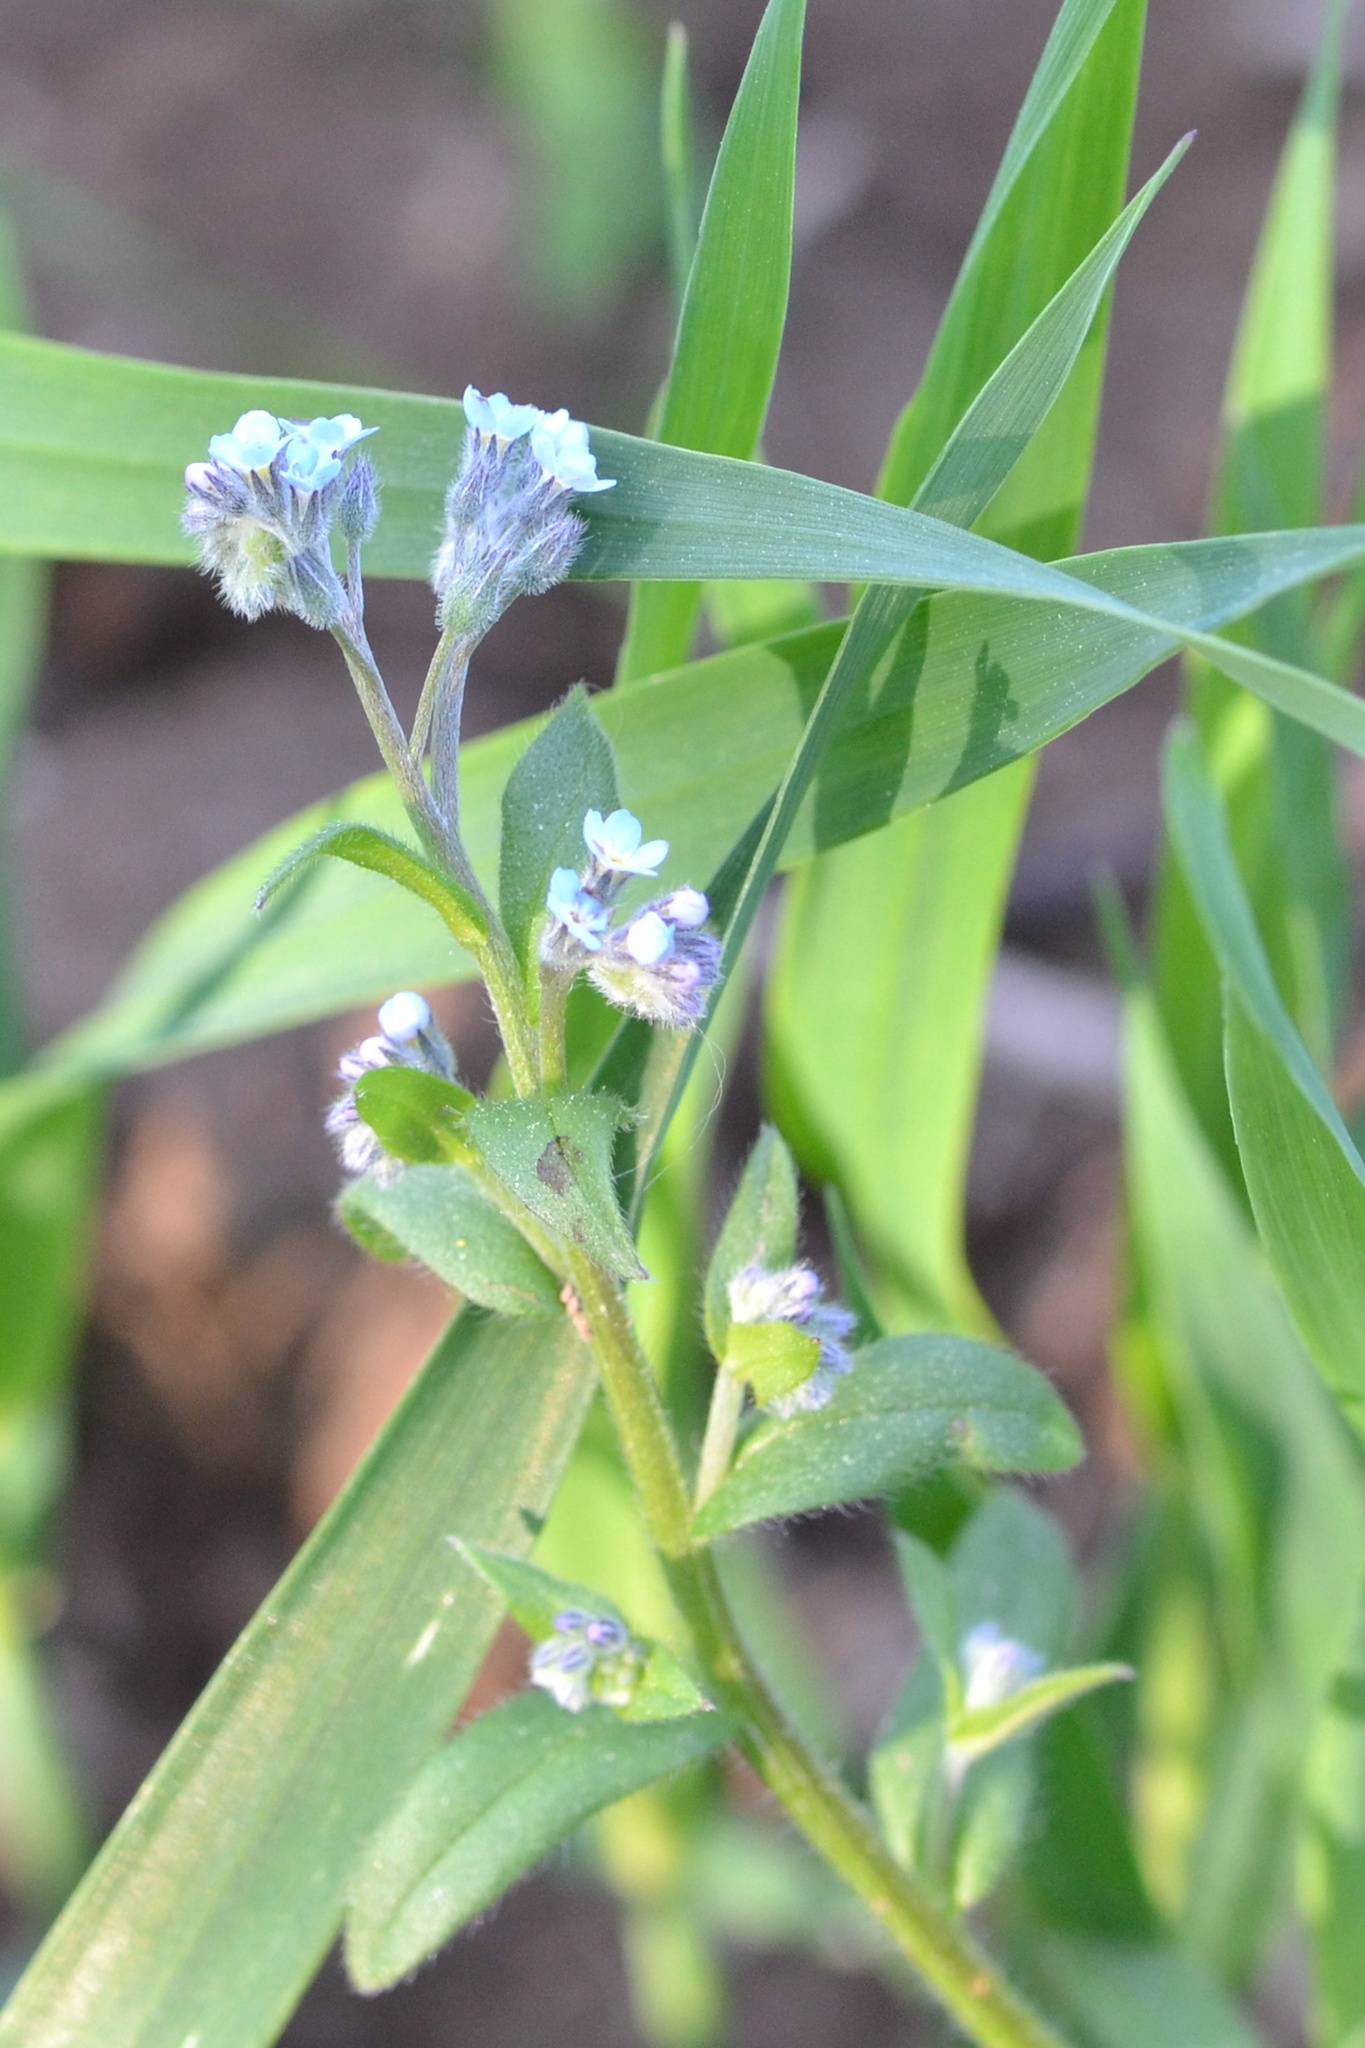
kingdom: Plantae
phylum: Tracheophyta
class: Magnoliopsida
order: Boraginales
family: Boraginaceae
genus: Myosotis
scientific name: Myosotis arvensis
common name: Field forget-me-not
